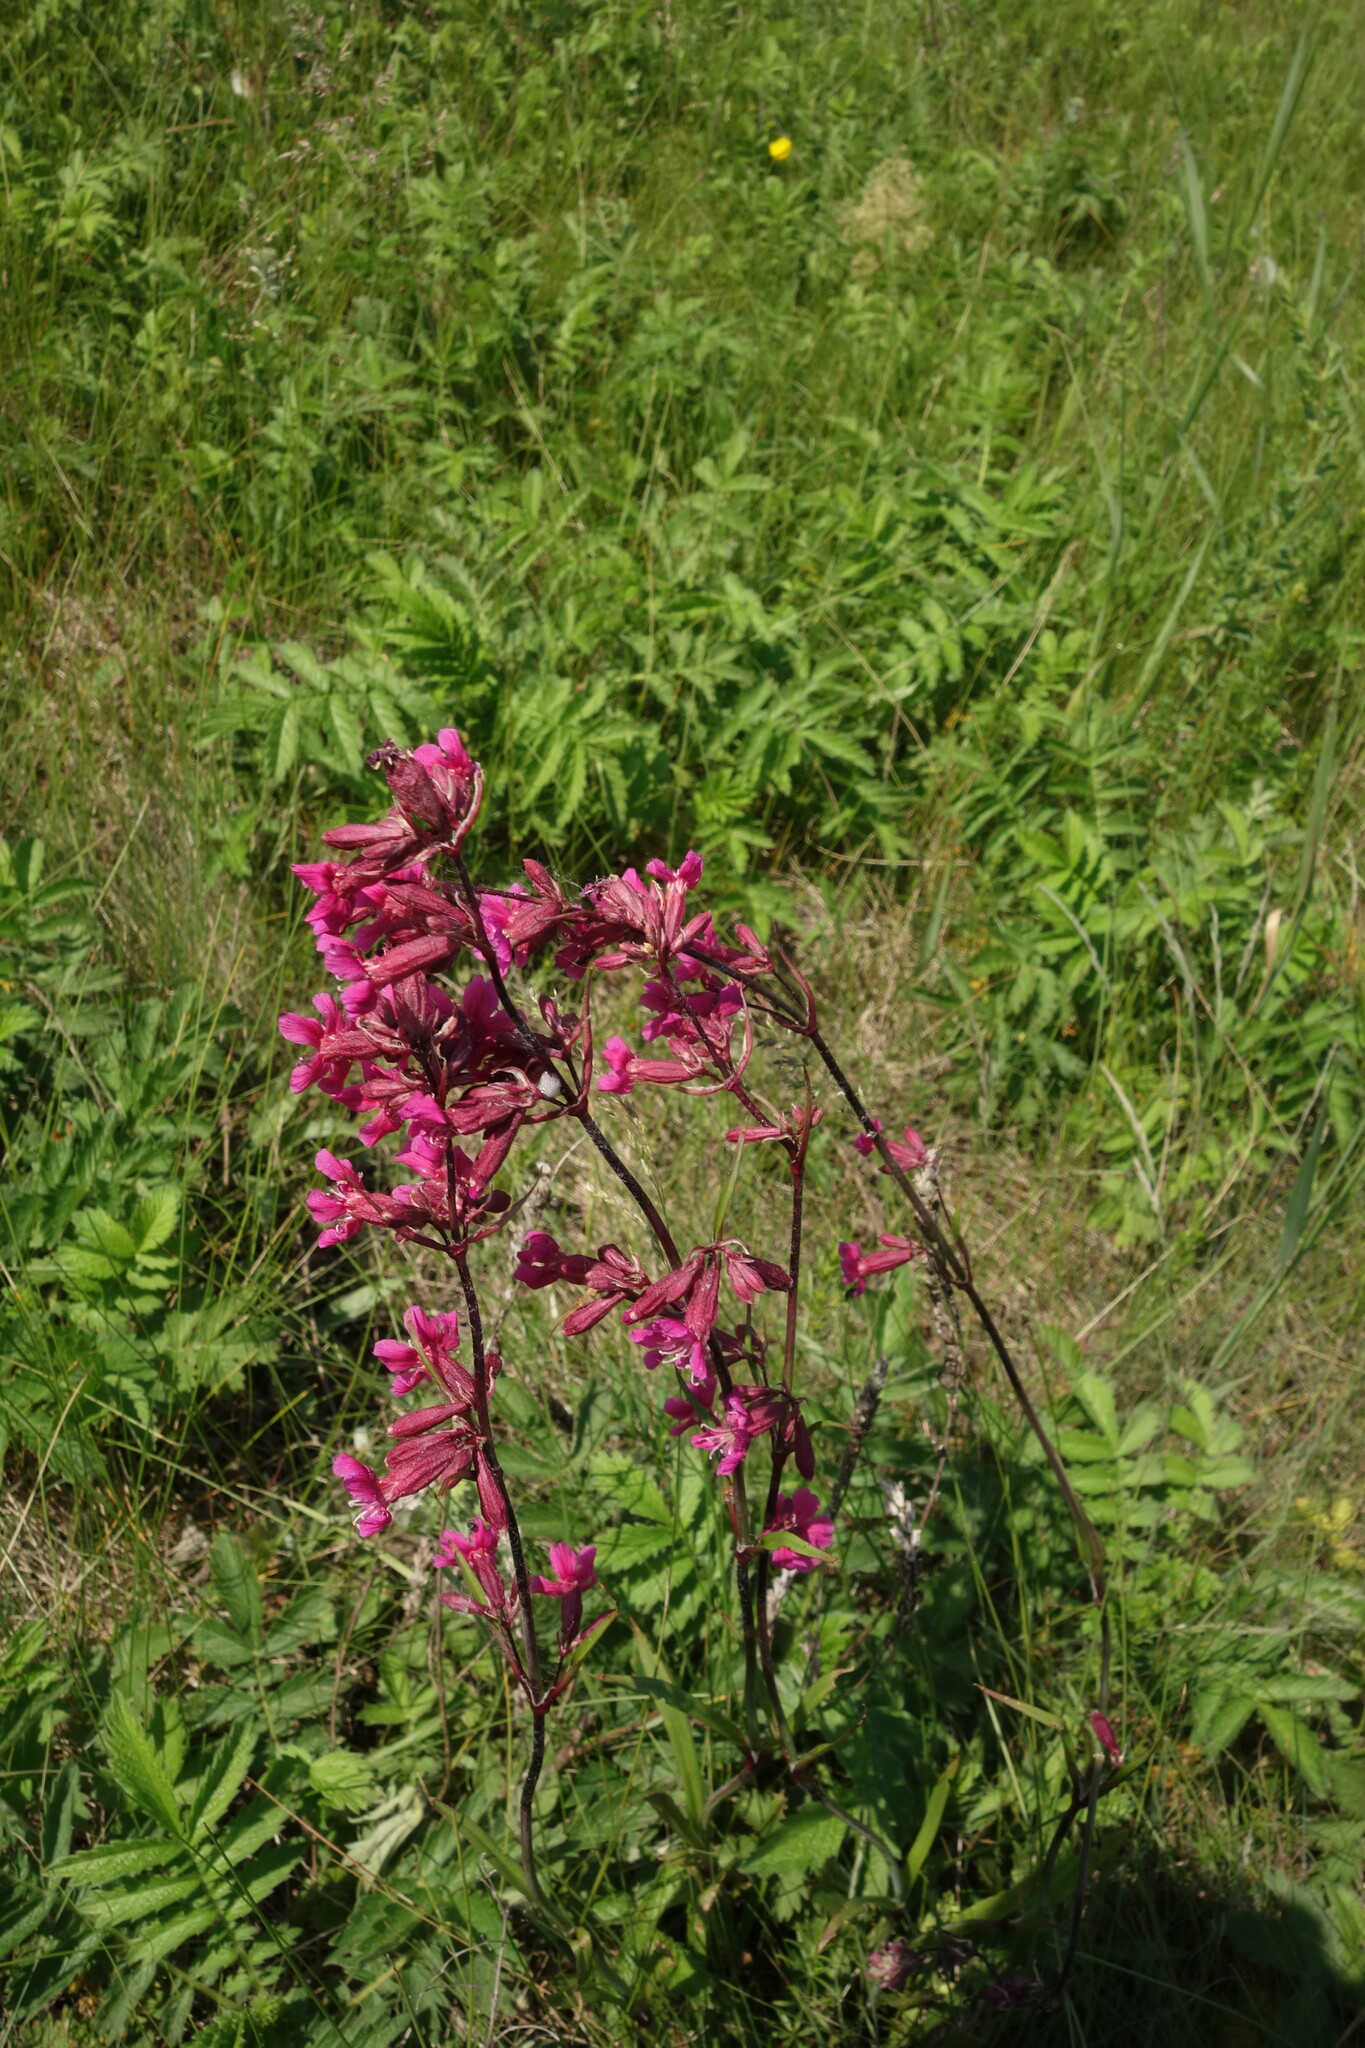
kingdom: Plantae
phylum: Tracheophyta
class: Magnoliopsida
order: Caryophyllales
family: Caryophyllaceae
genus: Viscaria
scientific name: Viscaria vulgaris
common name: Clammy campion
